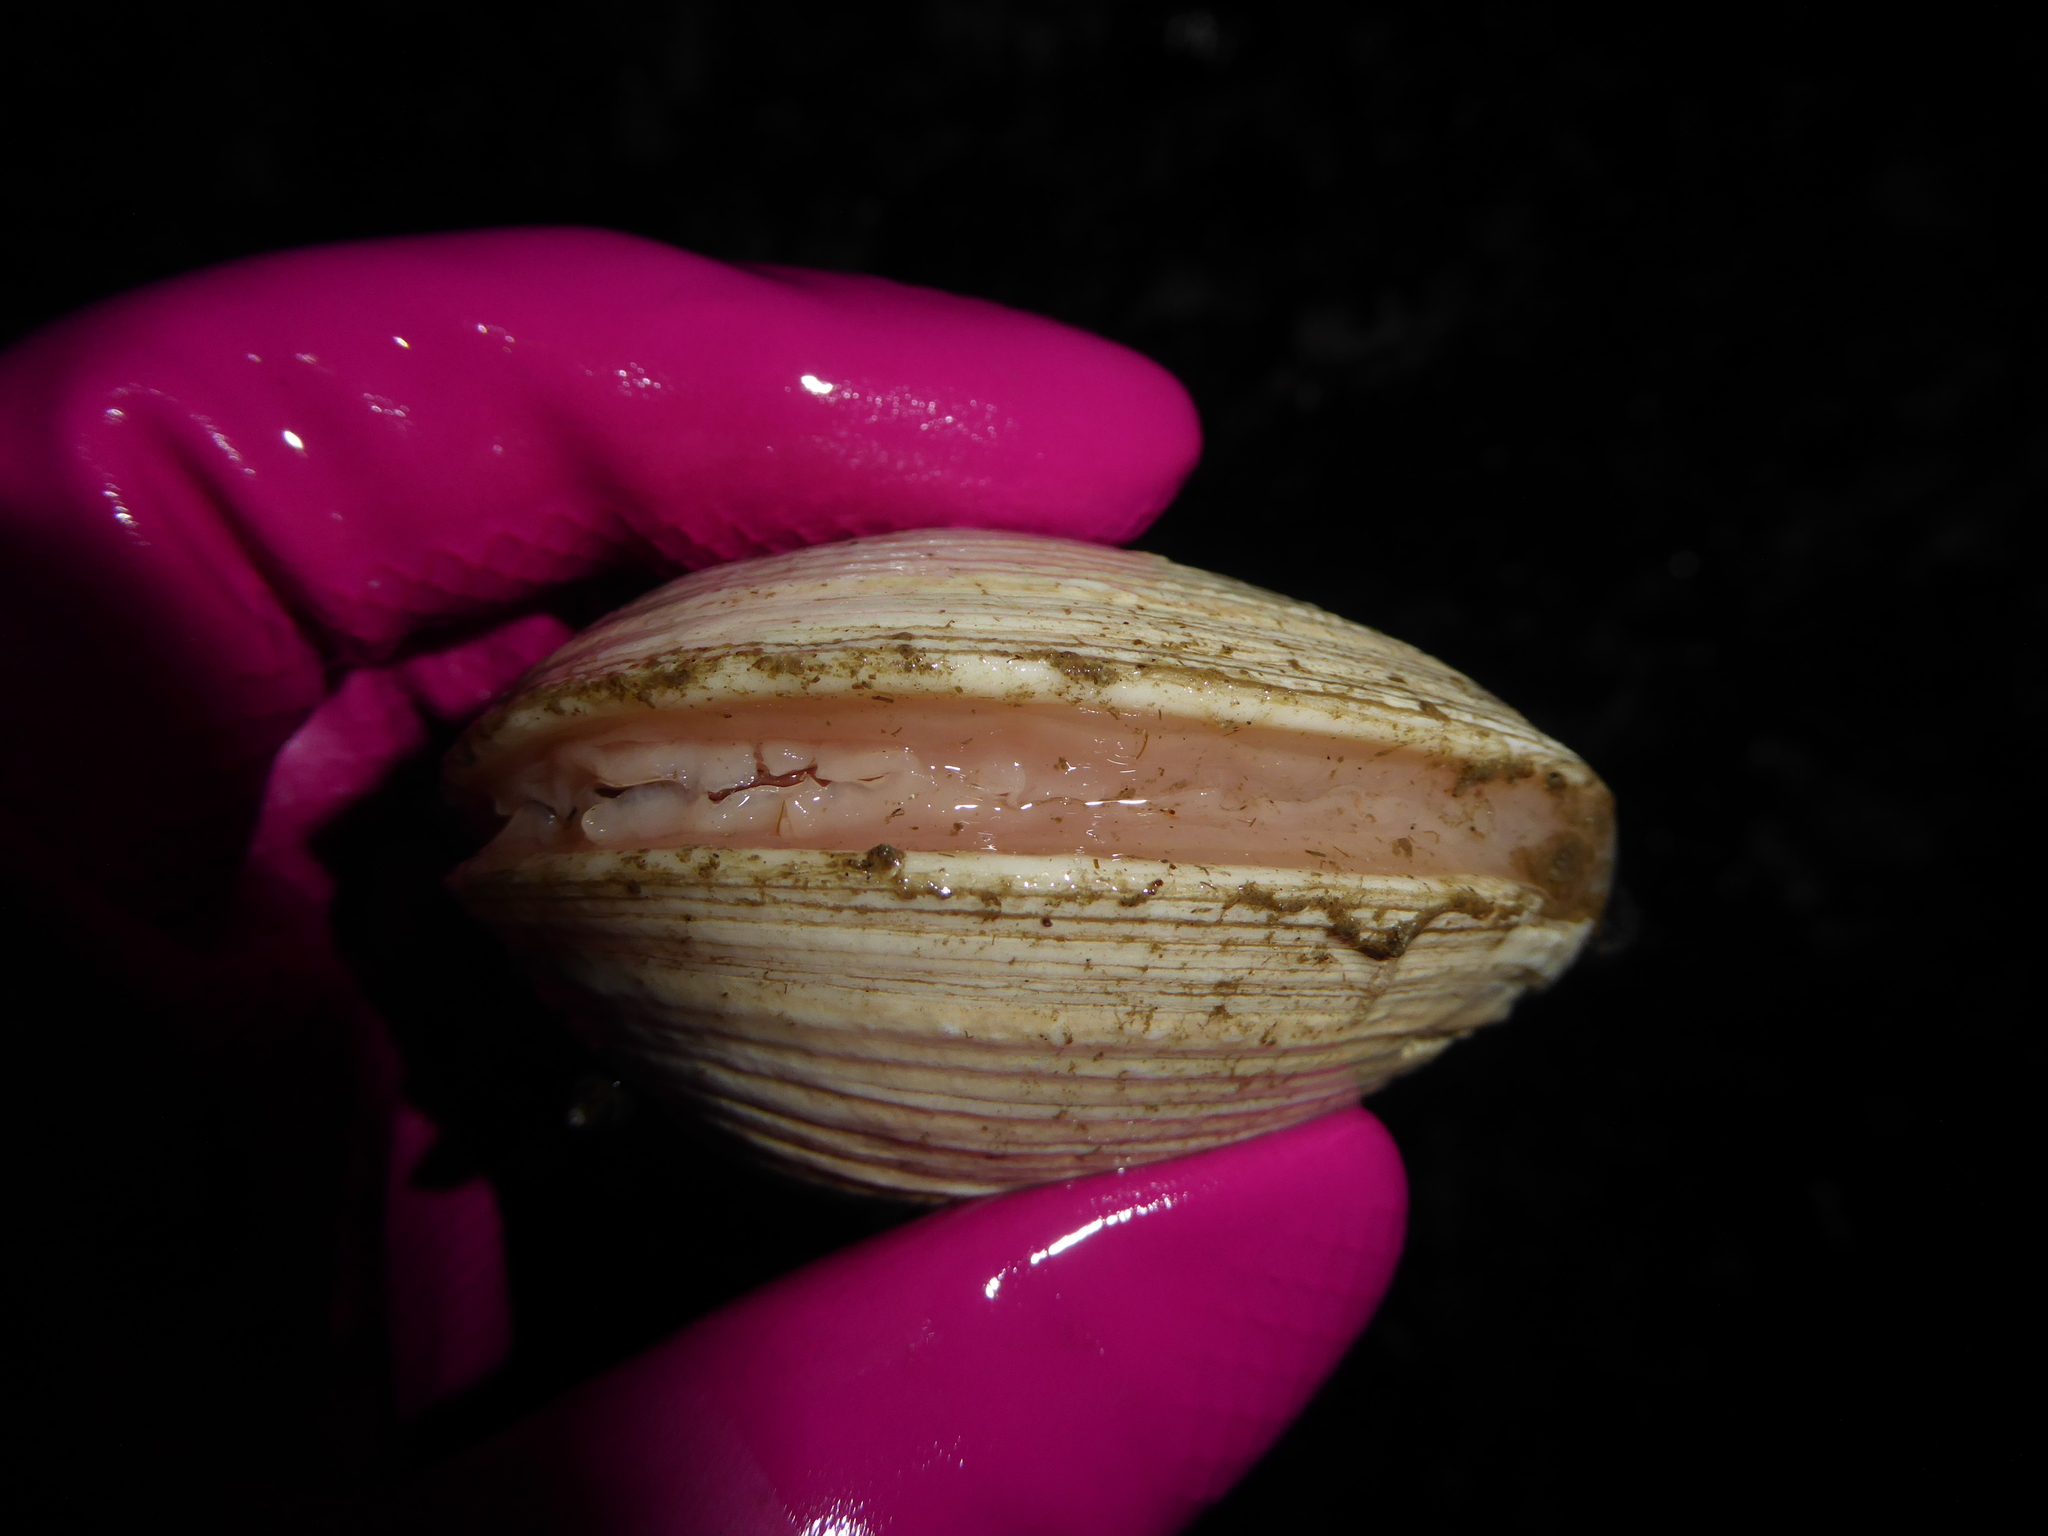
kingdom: Animalia
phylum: Mollusca
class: Bivalvia
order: Venerida
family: Veneridae
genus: Saxidomus
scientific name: Saxidomus gigantea
